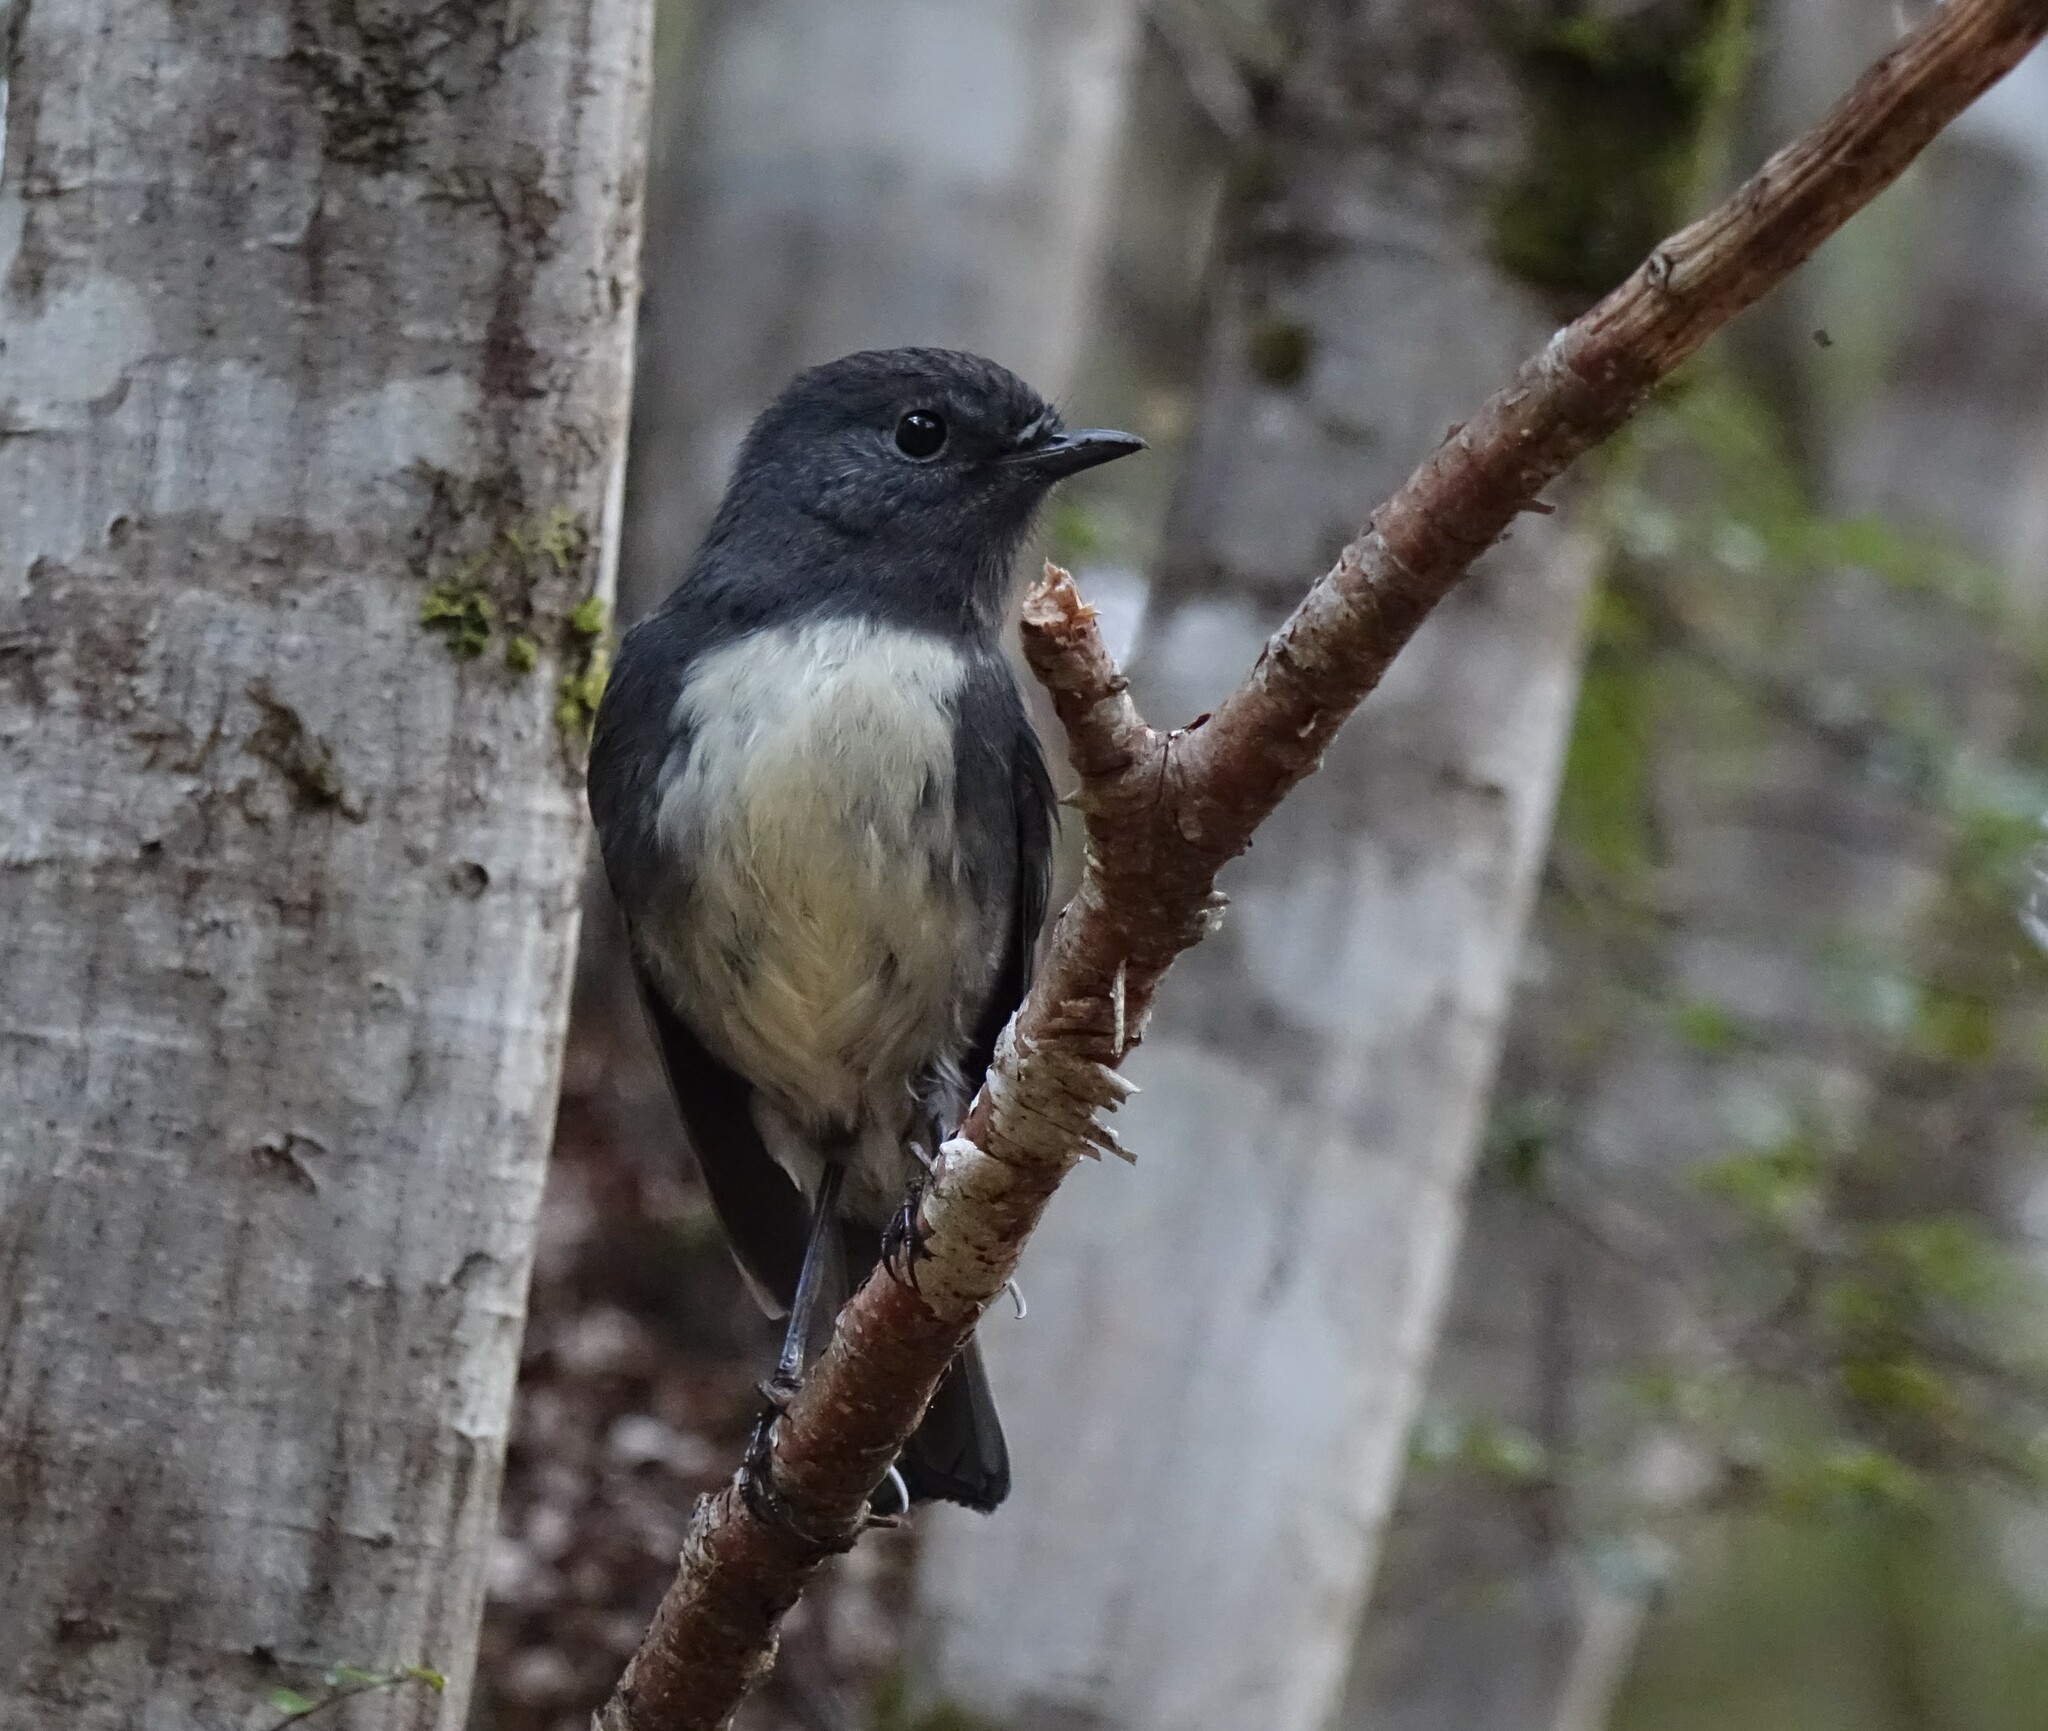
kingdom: Animalia
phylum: Chordata
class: Aves
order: Passeriformes
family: Petroicidae
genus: Petroica
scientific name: Petroica australis
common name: New zealand robin
